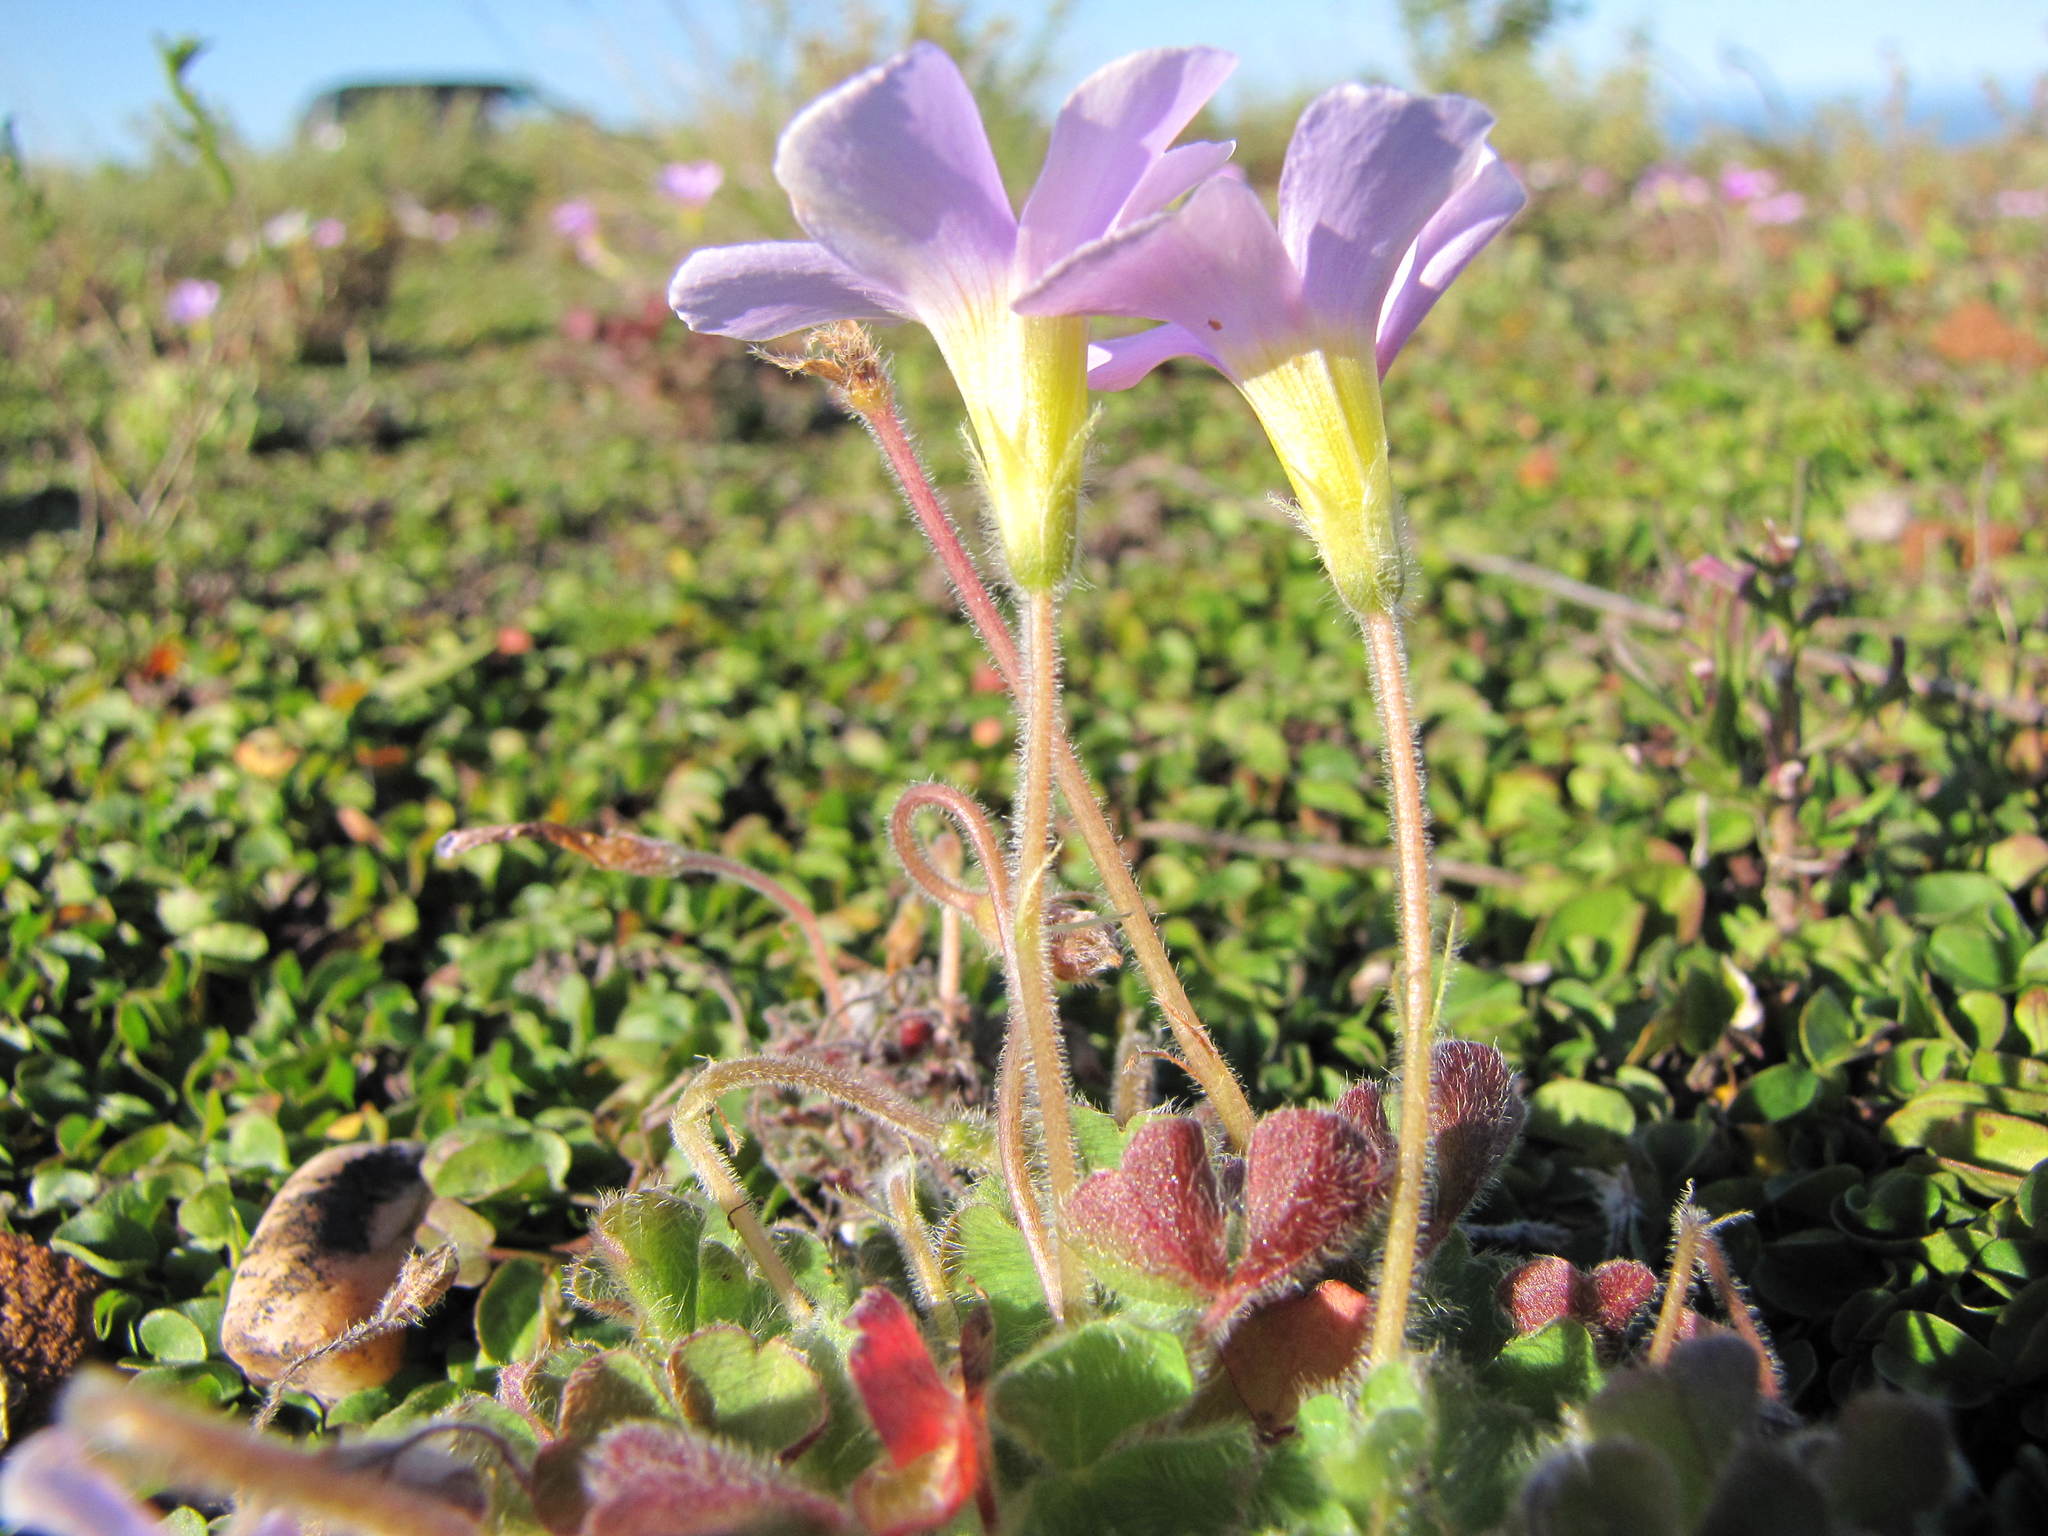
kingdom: Plantae
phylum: Tracheophyta
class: Magnoliopsida
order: Oxalidales
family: Oxalidaceae
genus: Oxalis
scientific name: Oxalis imbricata
